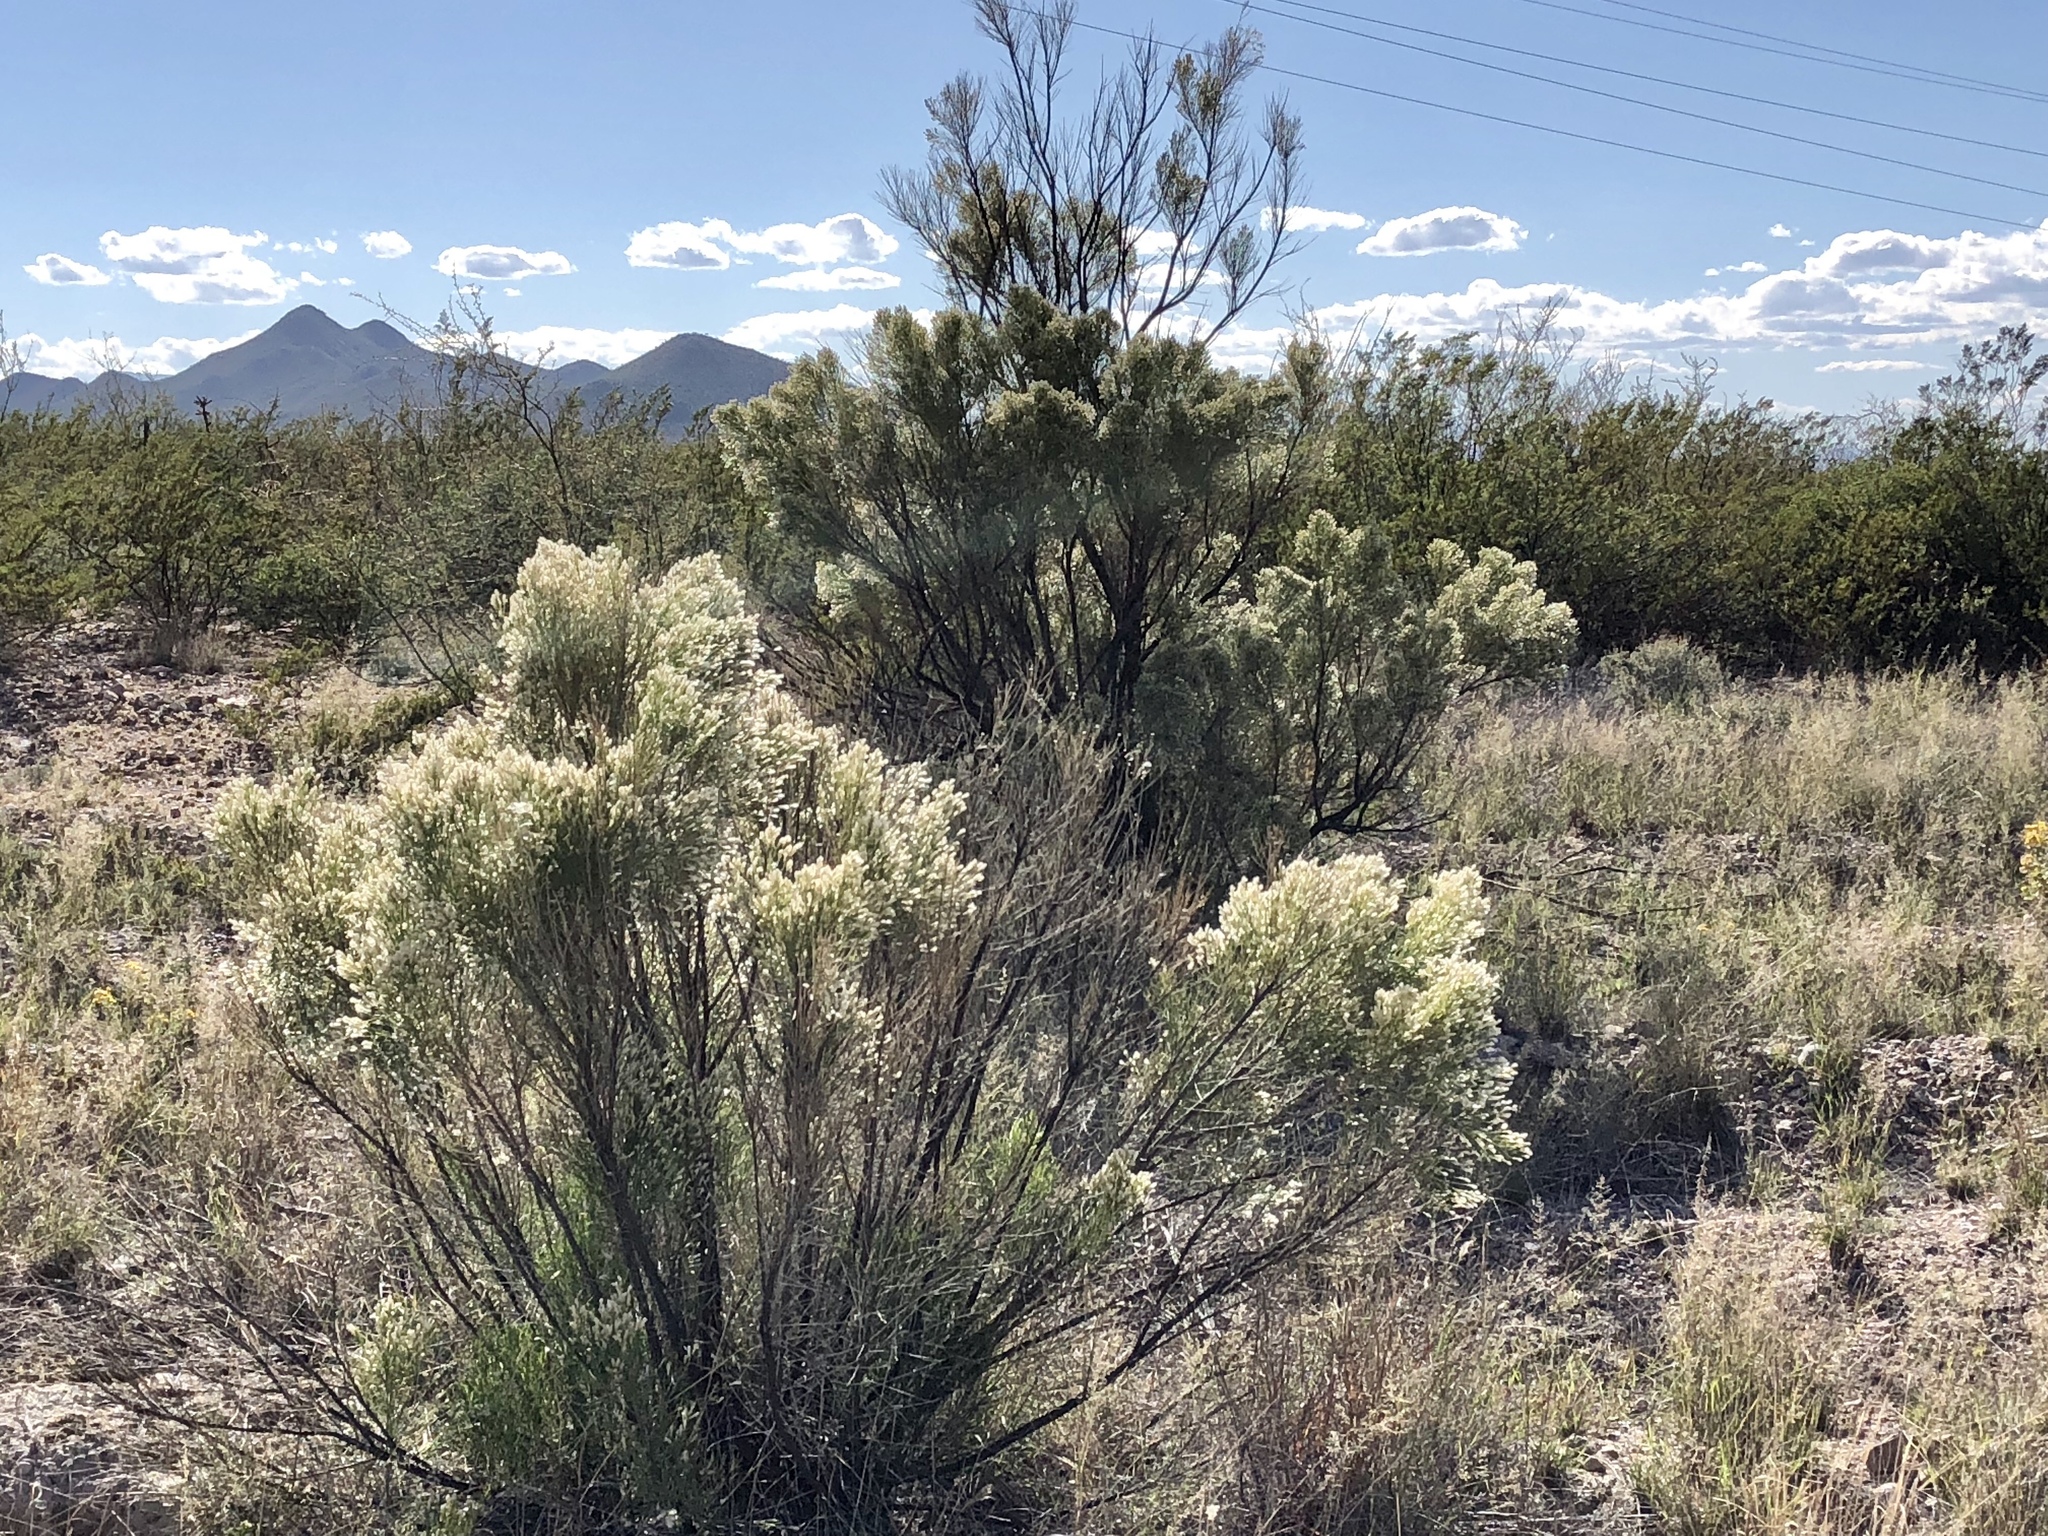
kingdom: Plantae
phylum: Tracheophyta
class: Magnoliopsida
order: Asterales
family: Asteraceae
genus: Baccharis
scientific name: Baccharis sarothroides
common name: Desert-broom
